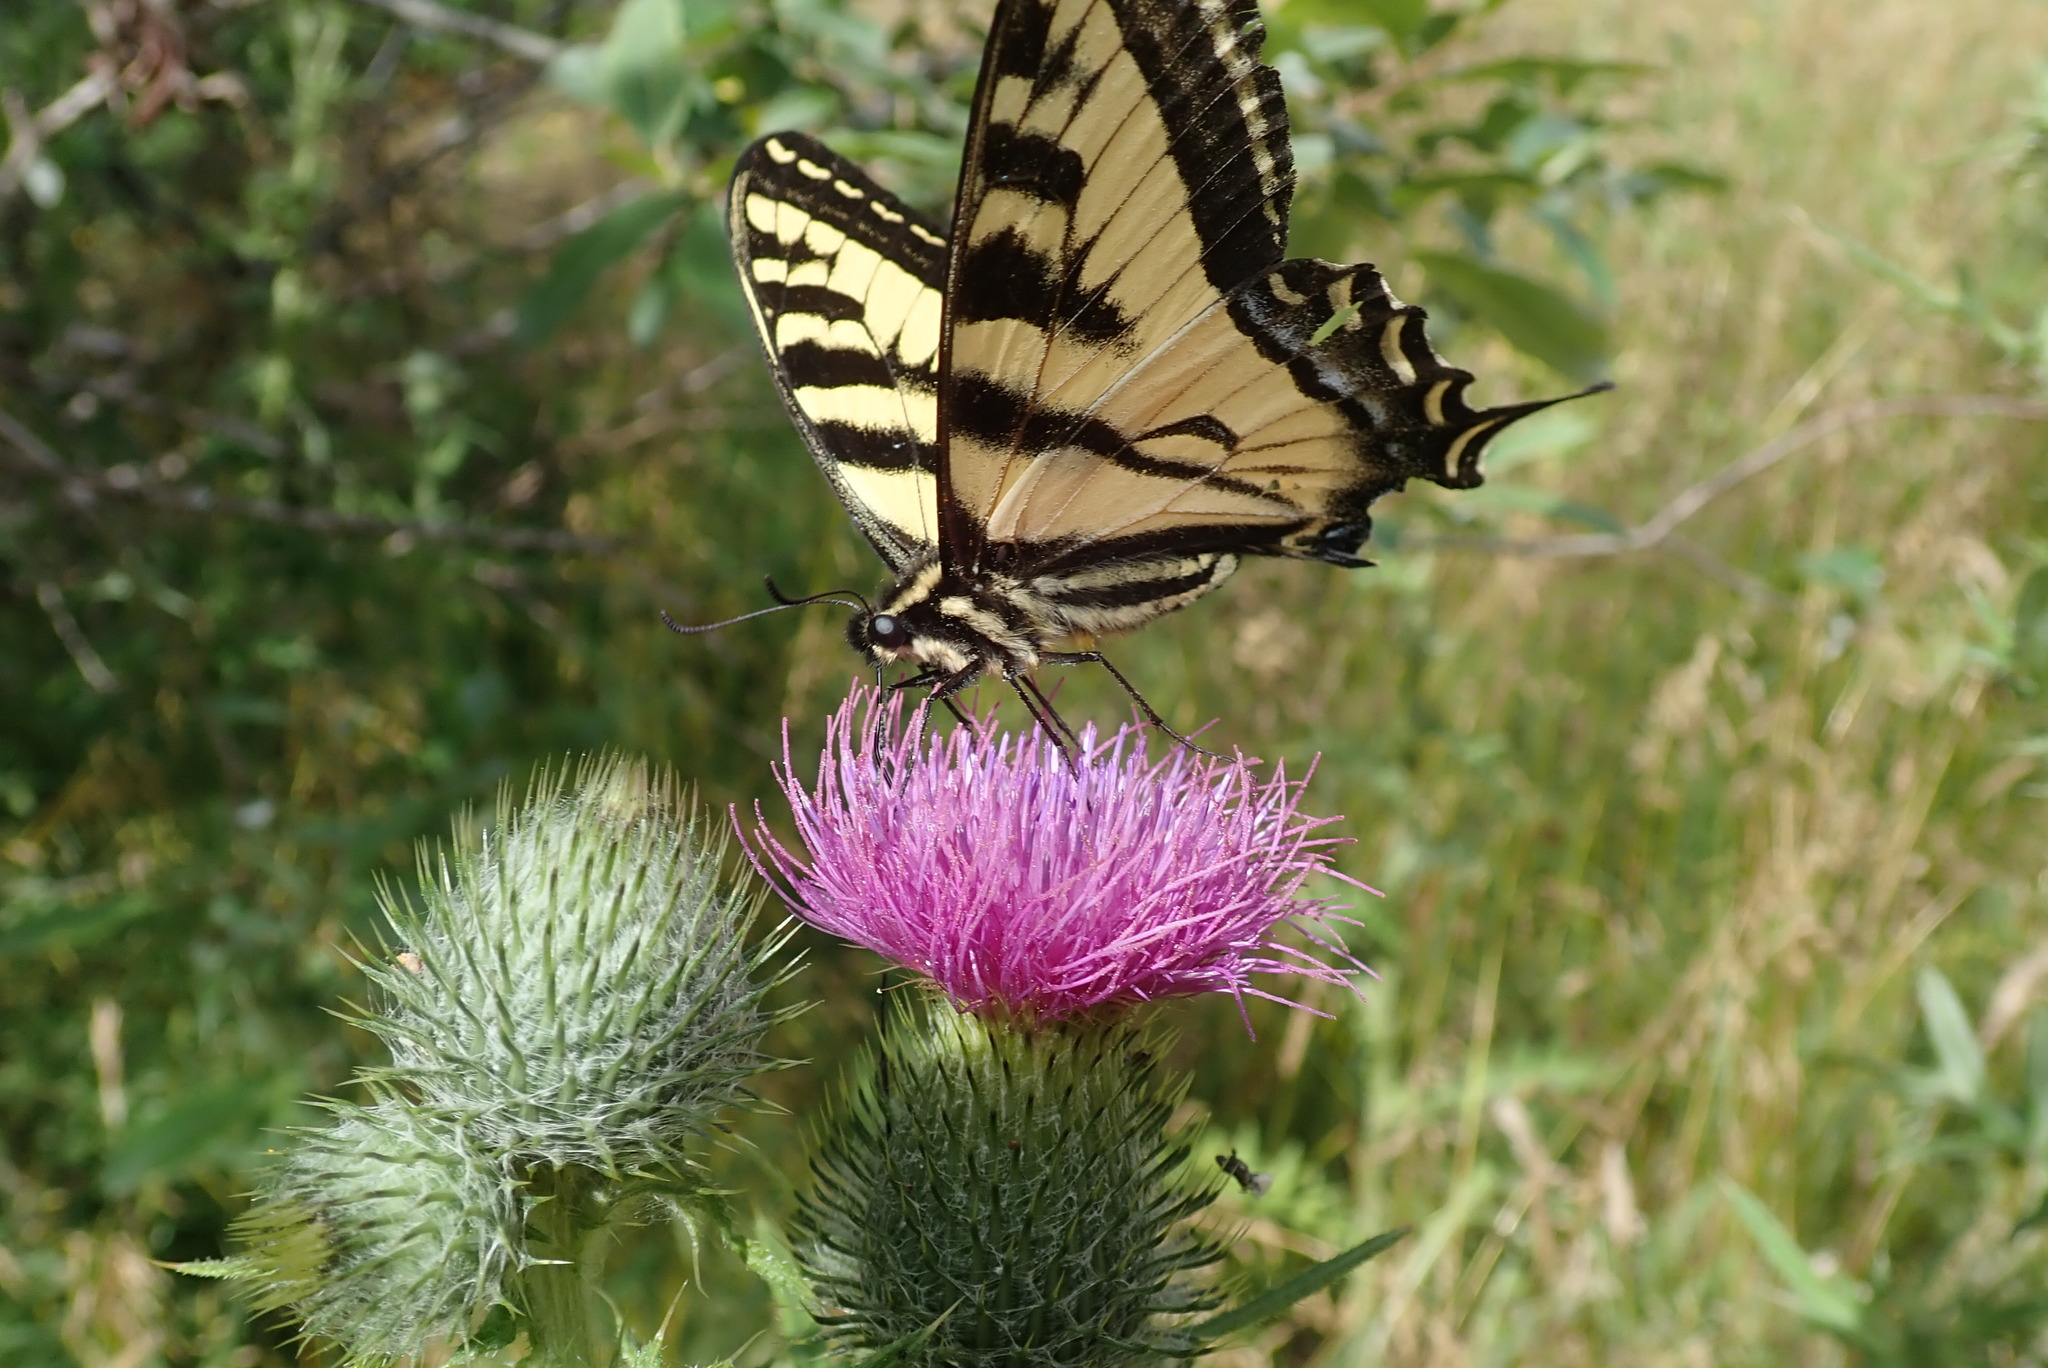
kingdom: Animalia
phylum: Arthropoda
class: Insecta
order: Lepidoptera
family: Papilionidae
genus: Papilio
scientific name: Papilio rutulus
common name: Western tiger swallowtail
